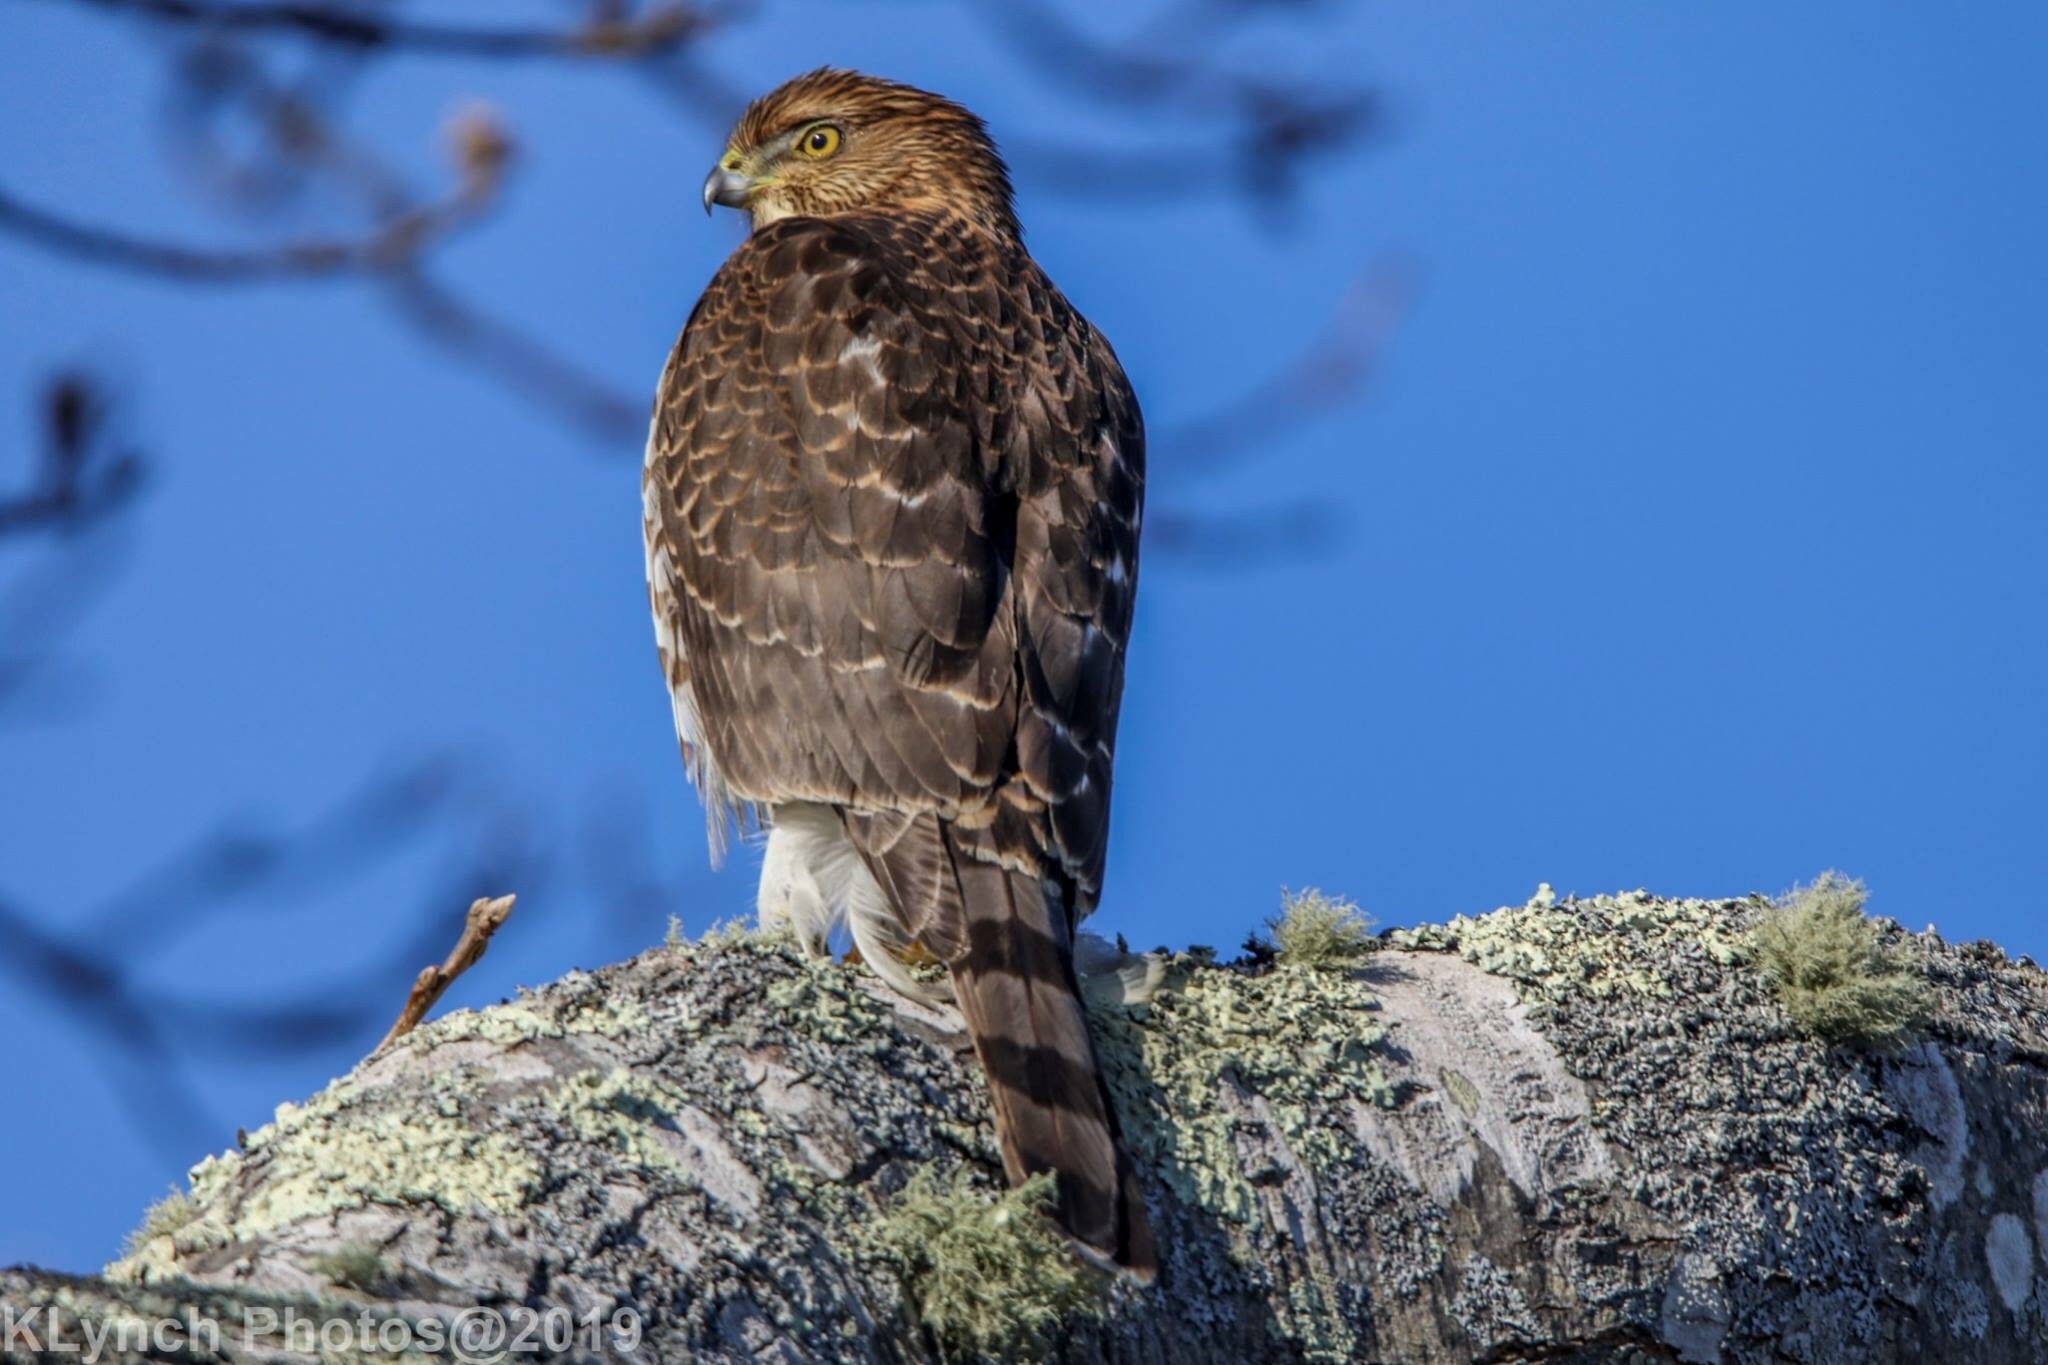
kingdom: Animalia
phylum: Chordata
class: Aves
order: Accipitriformes
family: Accipitridae
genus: Accipiter
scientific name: Accipiter cooperii
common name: Cooper's hawk
